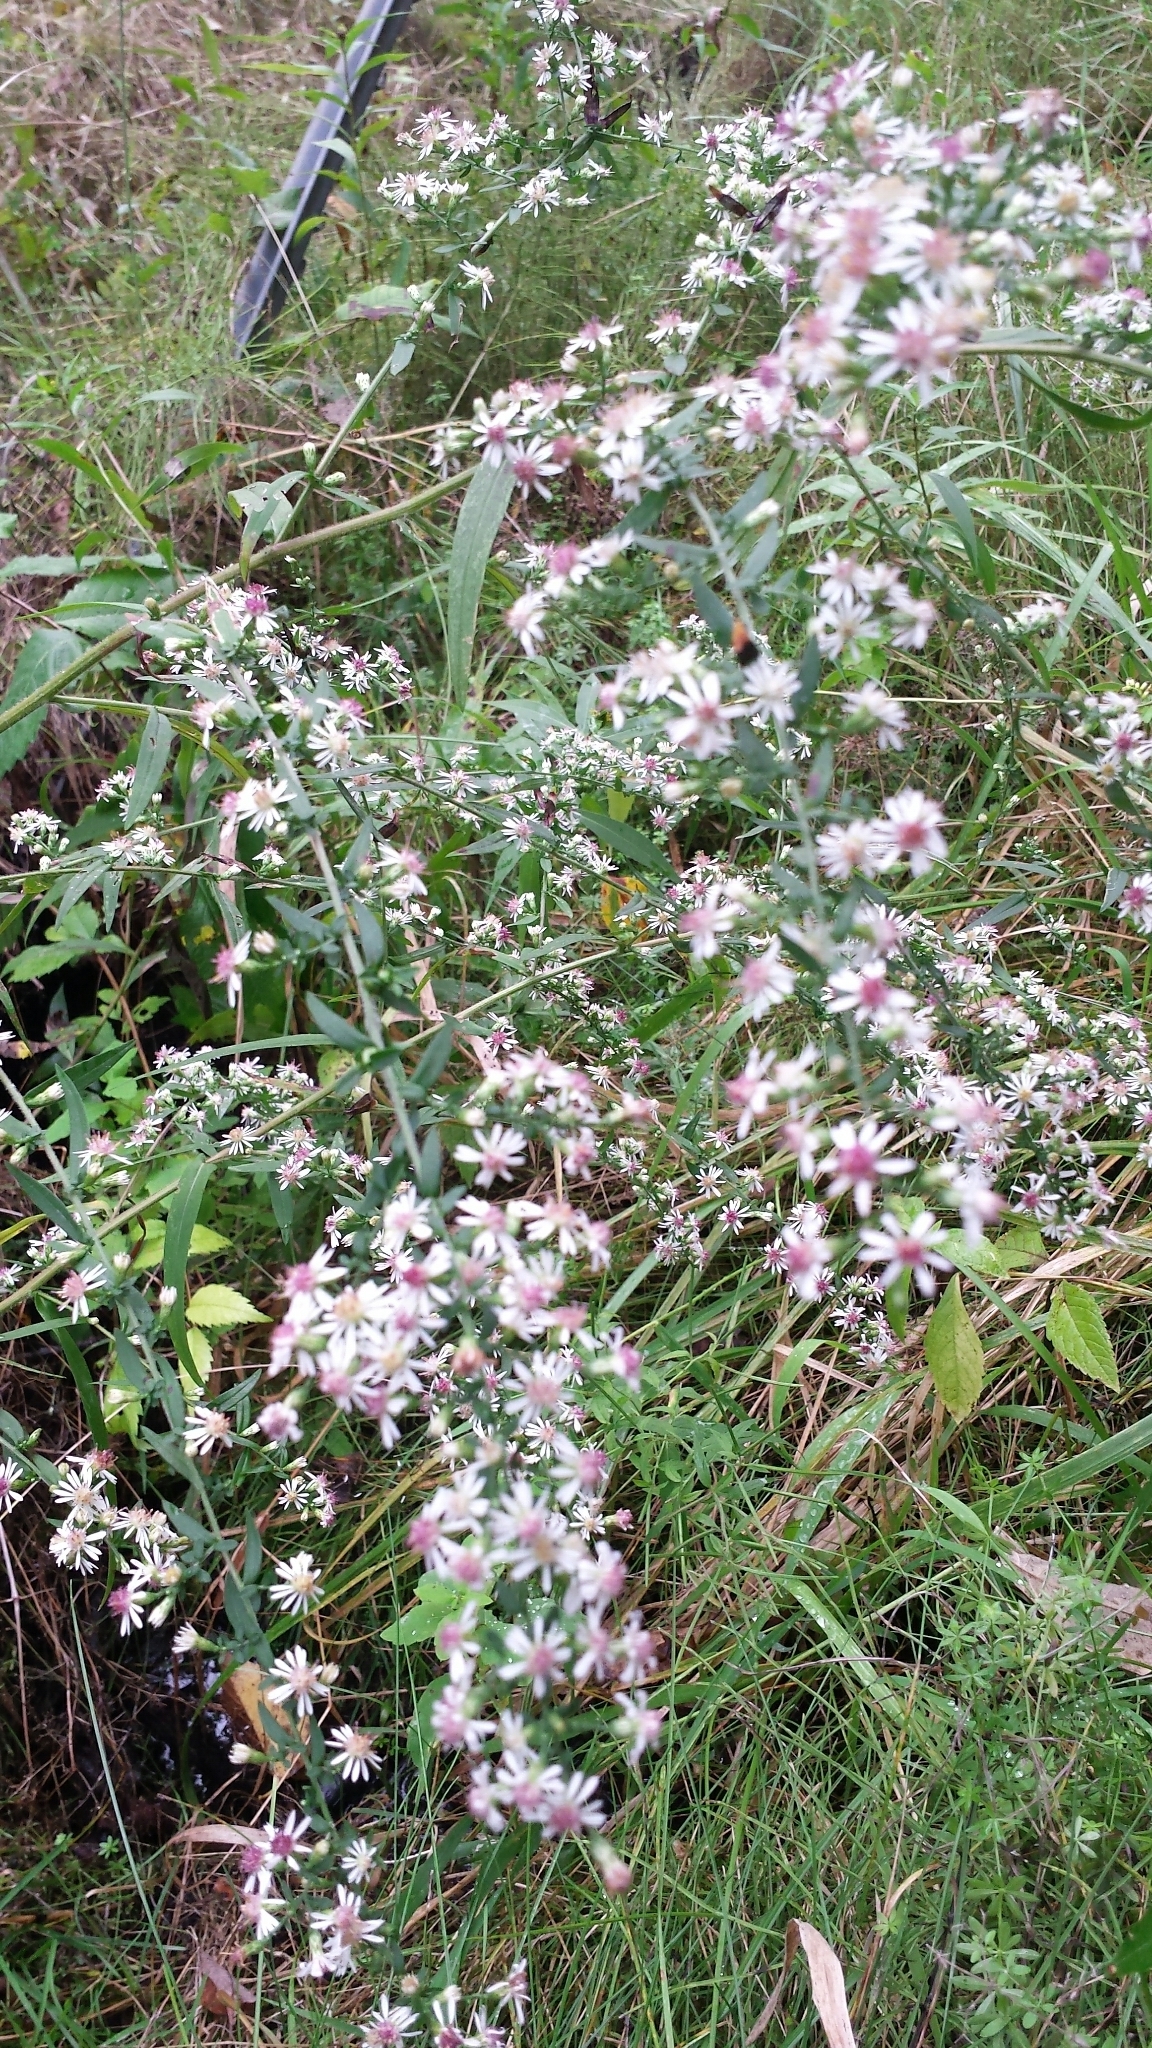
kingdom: Plantae
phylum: Tracheophyta
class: Magnoliopsida
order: Asterales
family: Asteraceae
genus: Symphyotrichum
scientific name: Symphyotrichum lateriflorum
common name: Calico aster
